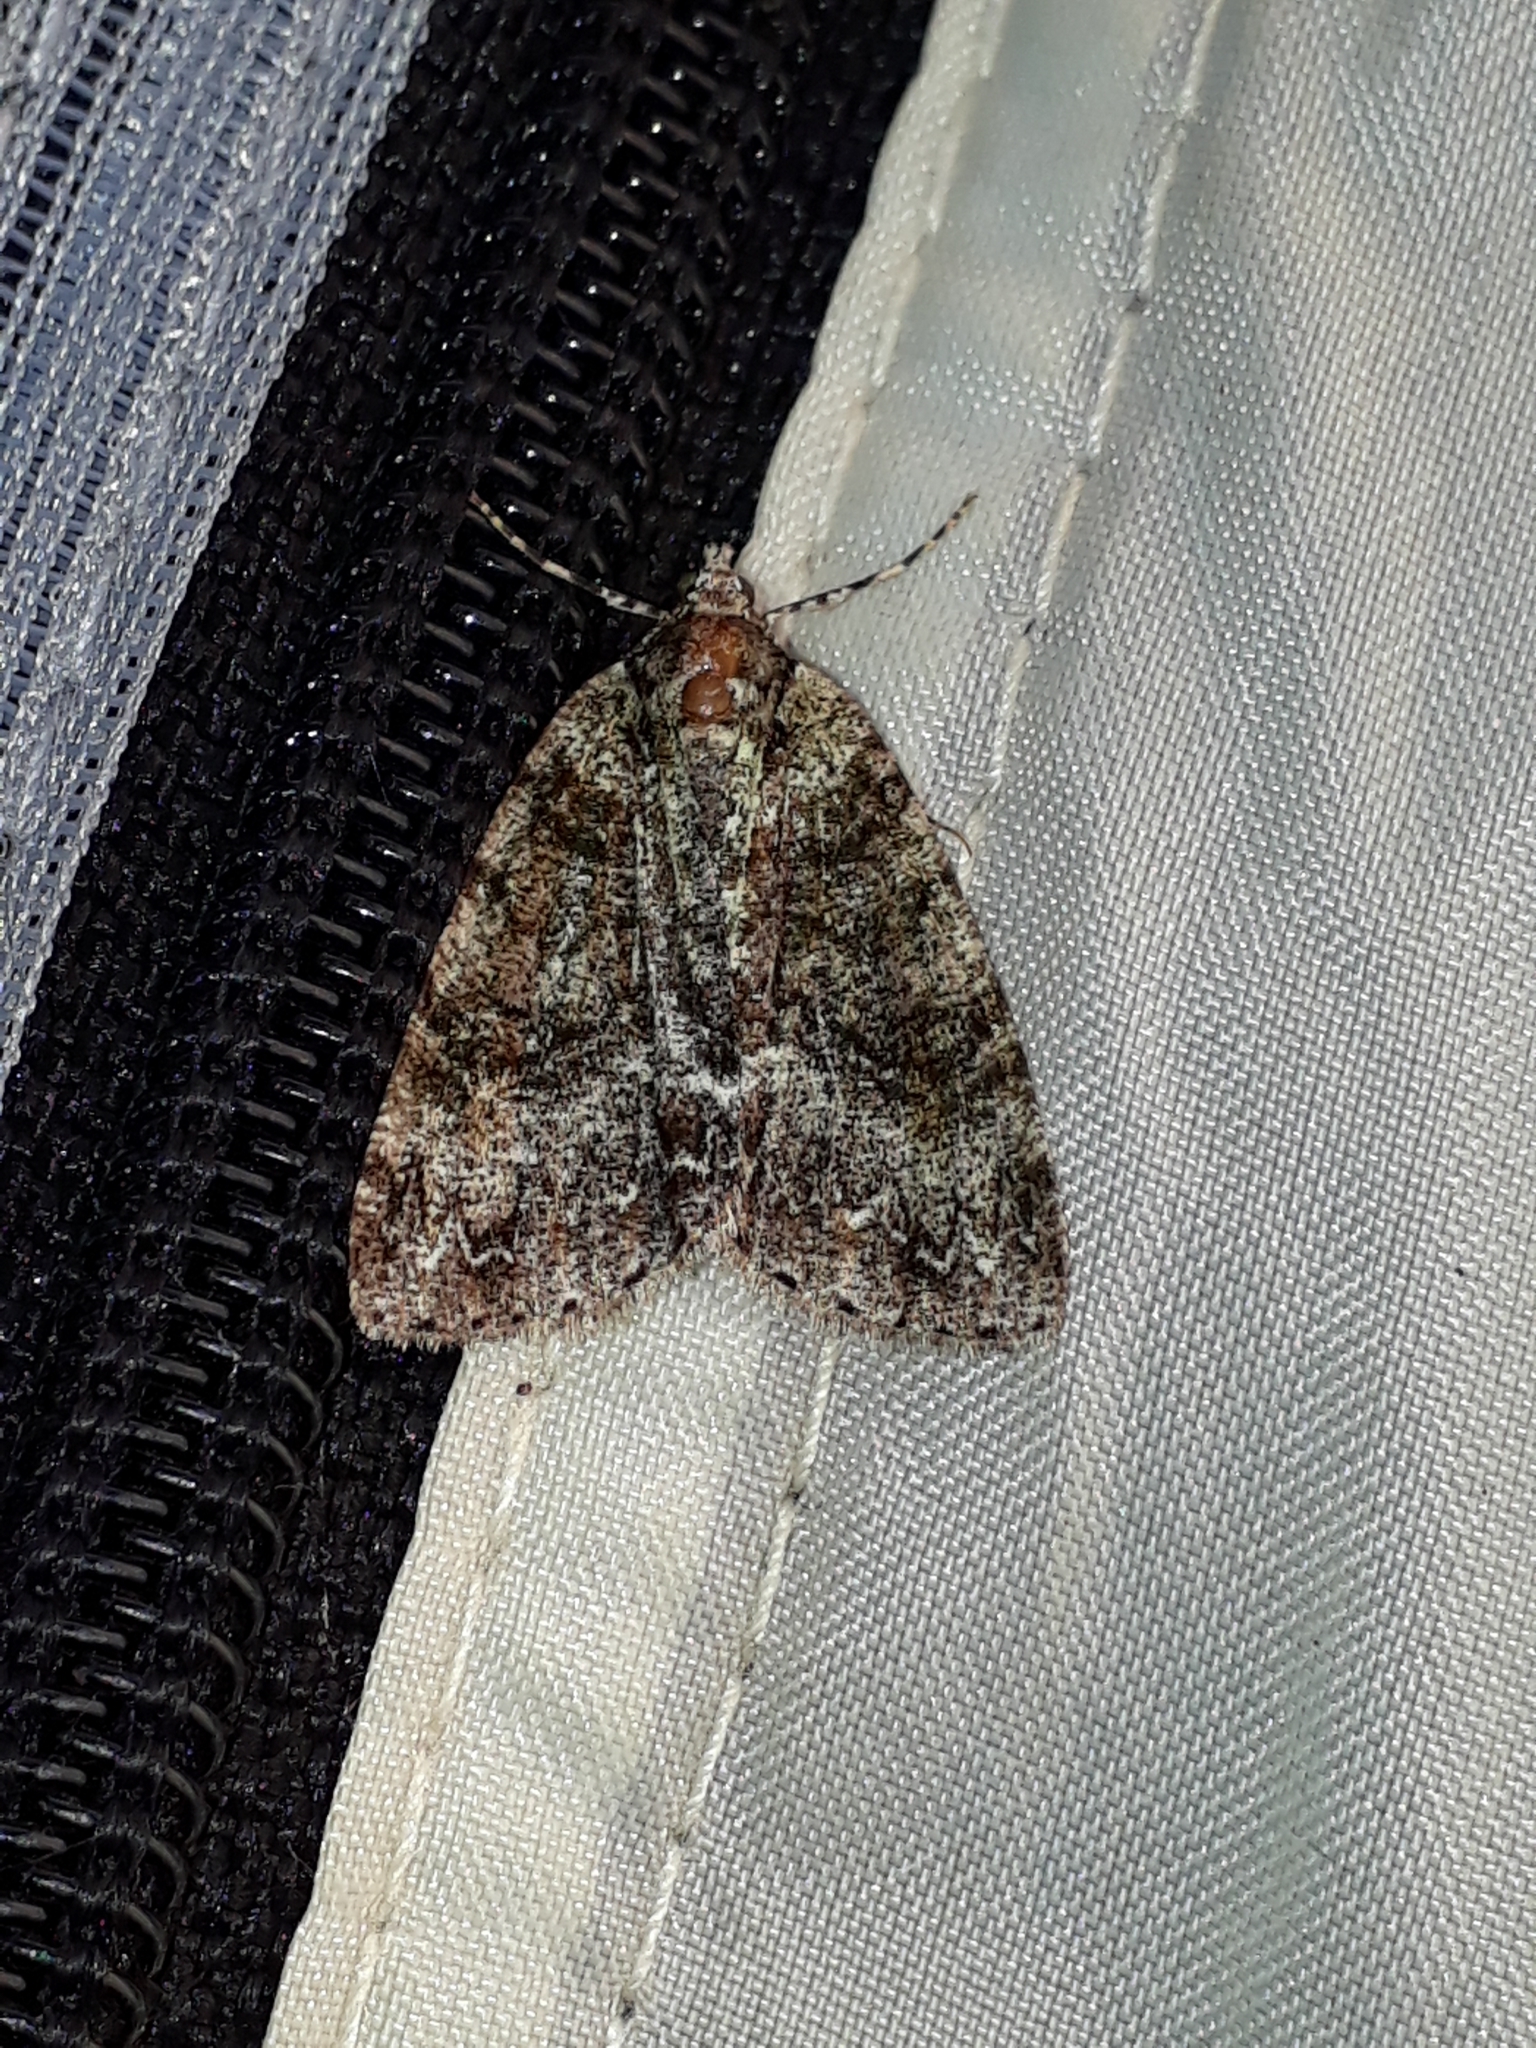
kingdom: Animalia
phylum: Arthropoda
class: Insecta
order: Lepidoptera
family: Geometridae
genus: Pseudocoremia
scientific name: Pseudocoremia suavis
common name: Common forest looper
